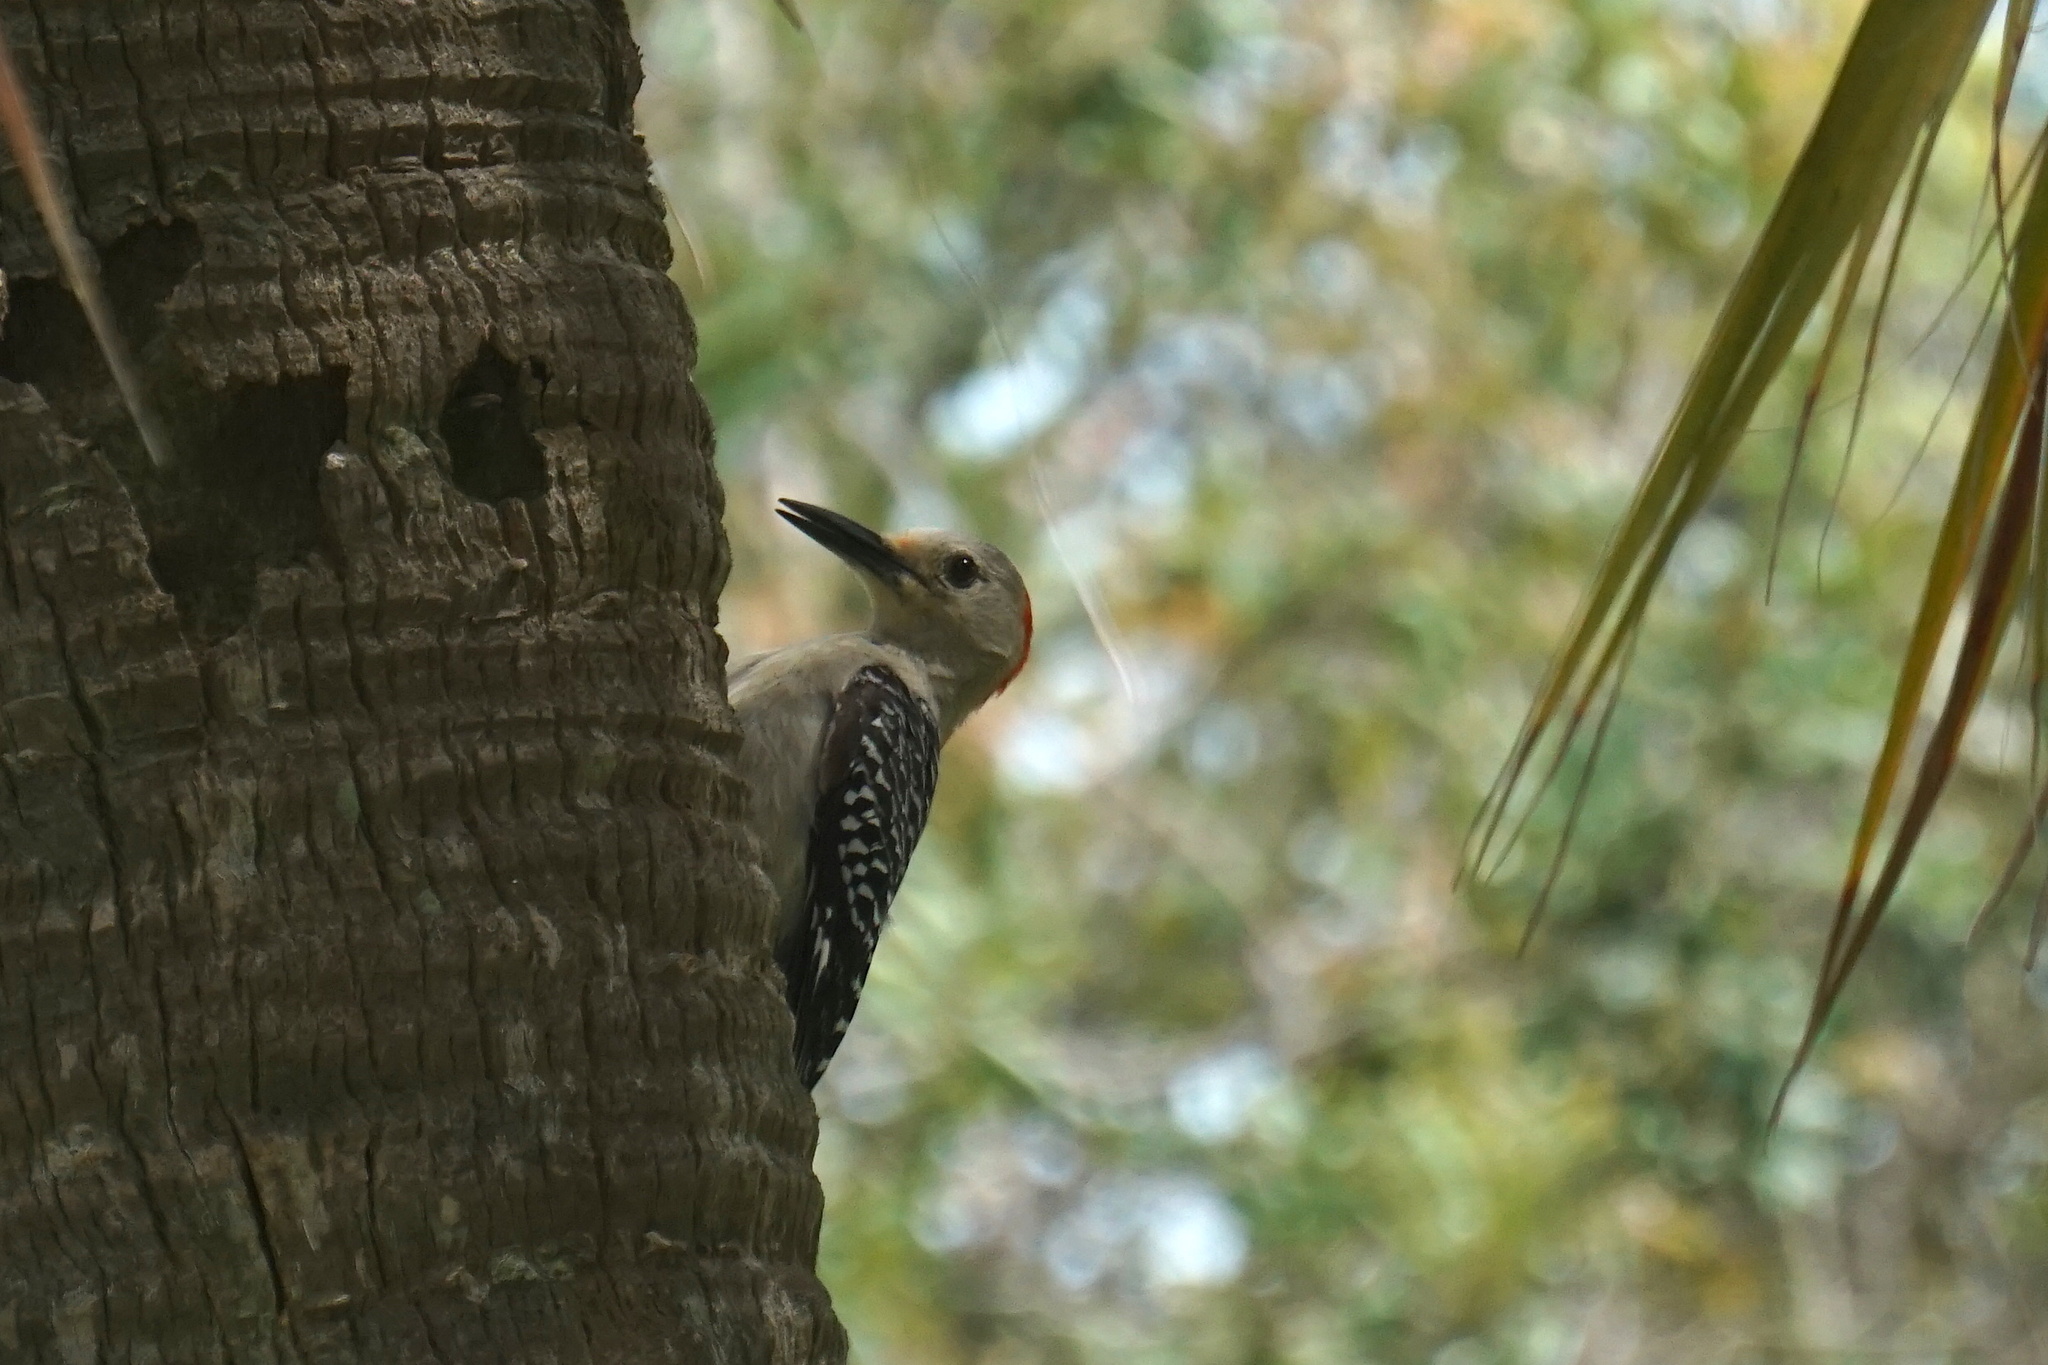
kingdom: Animalia
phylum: Chordata
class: Aves
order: Piciformes
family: Picidae
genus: Melanerpes
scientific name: Melanerpes carolinus
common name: Red-bellied woodpecker
